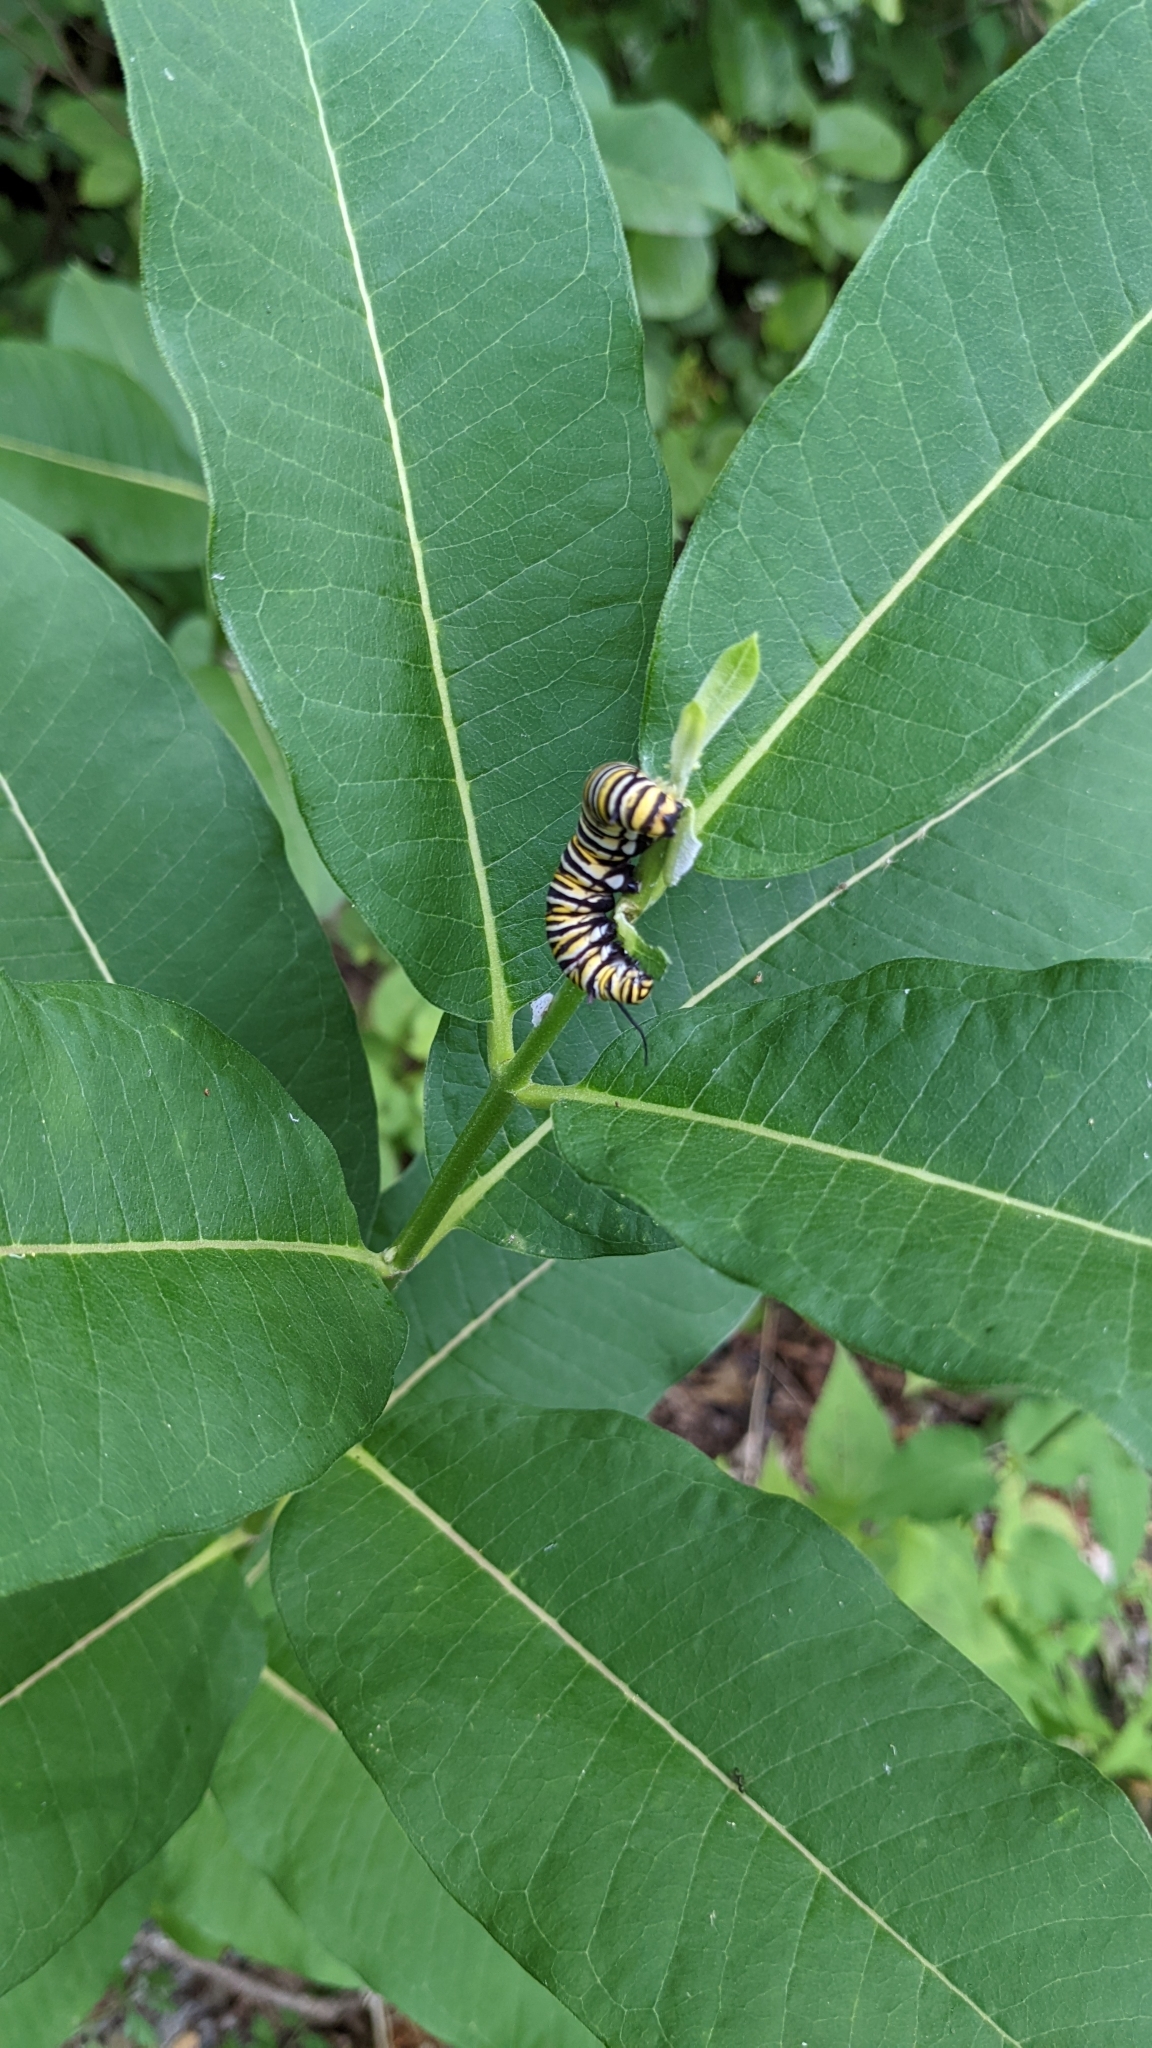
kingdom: Animalia
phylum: Arthropoda
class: Insecta
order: Lepidoptera
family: Nymphalidae
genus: Danaus
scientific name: Danaus plexippus
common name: Monarch
